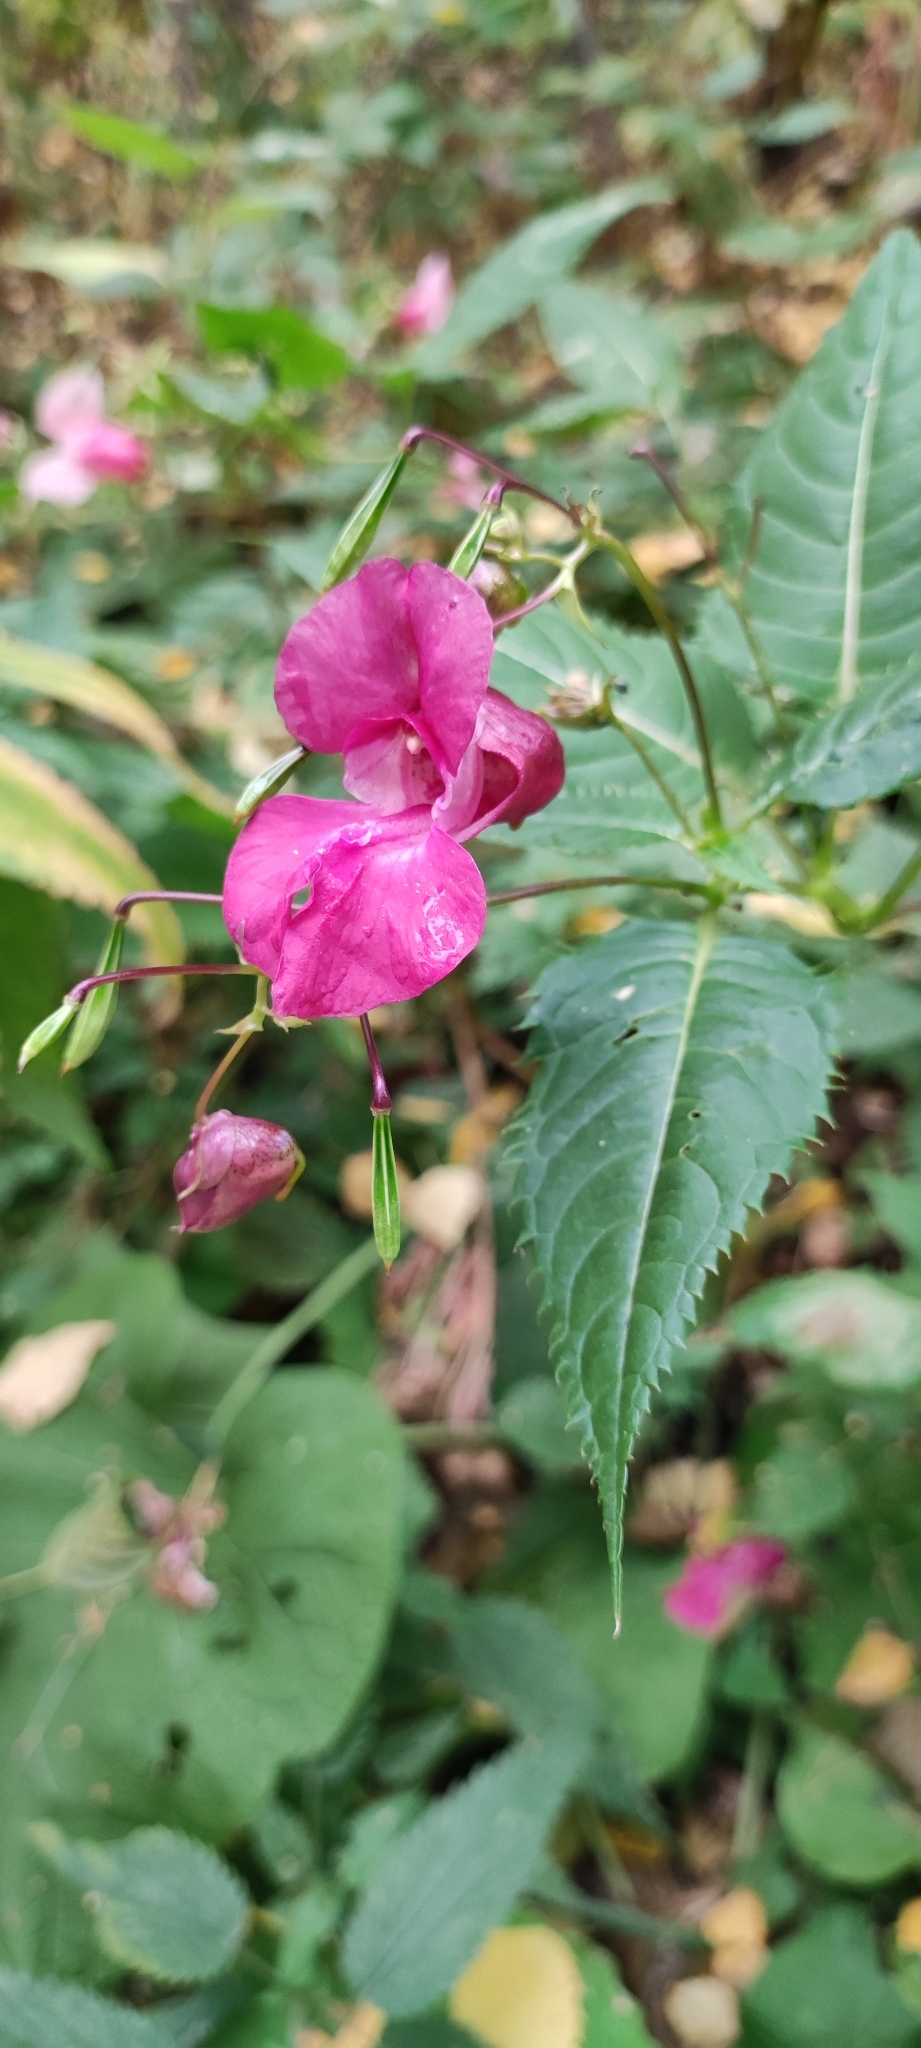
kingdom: Plantae
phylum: Tracheophyta
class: Magnoliopsida
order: Ericales
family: Balsaminaceae
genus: Impatiens
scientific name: Impatiens glandulifera
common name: Himalayan balsam
